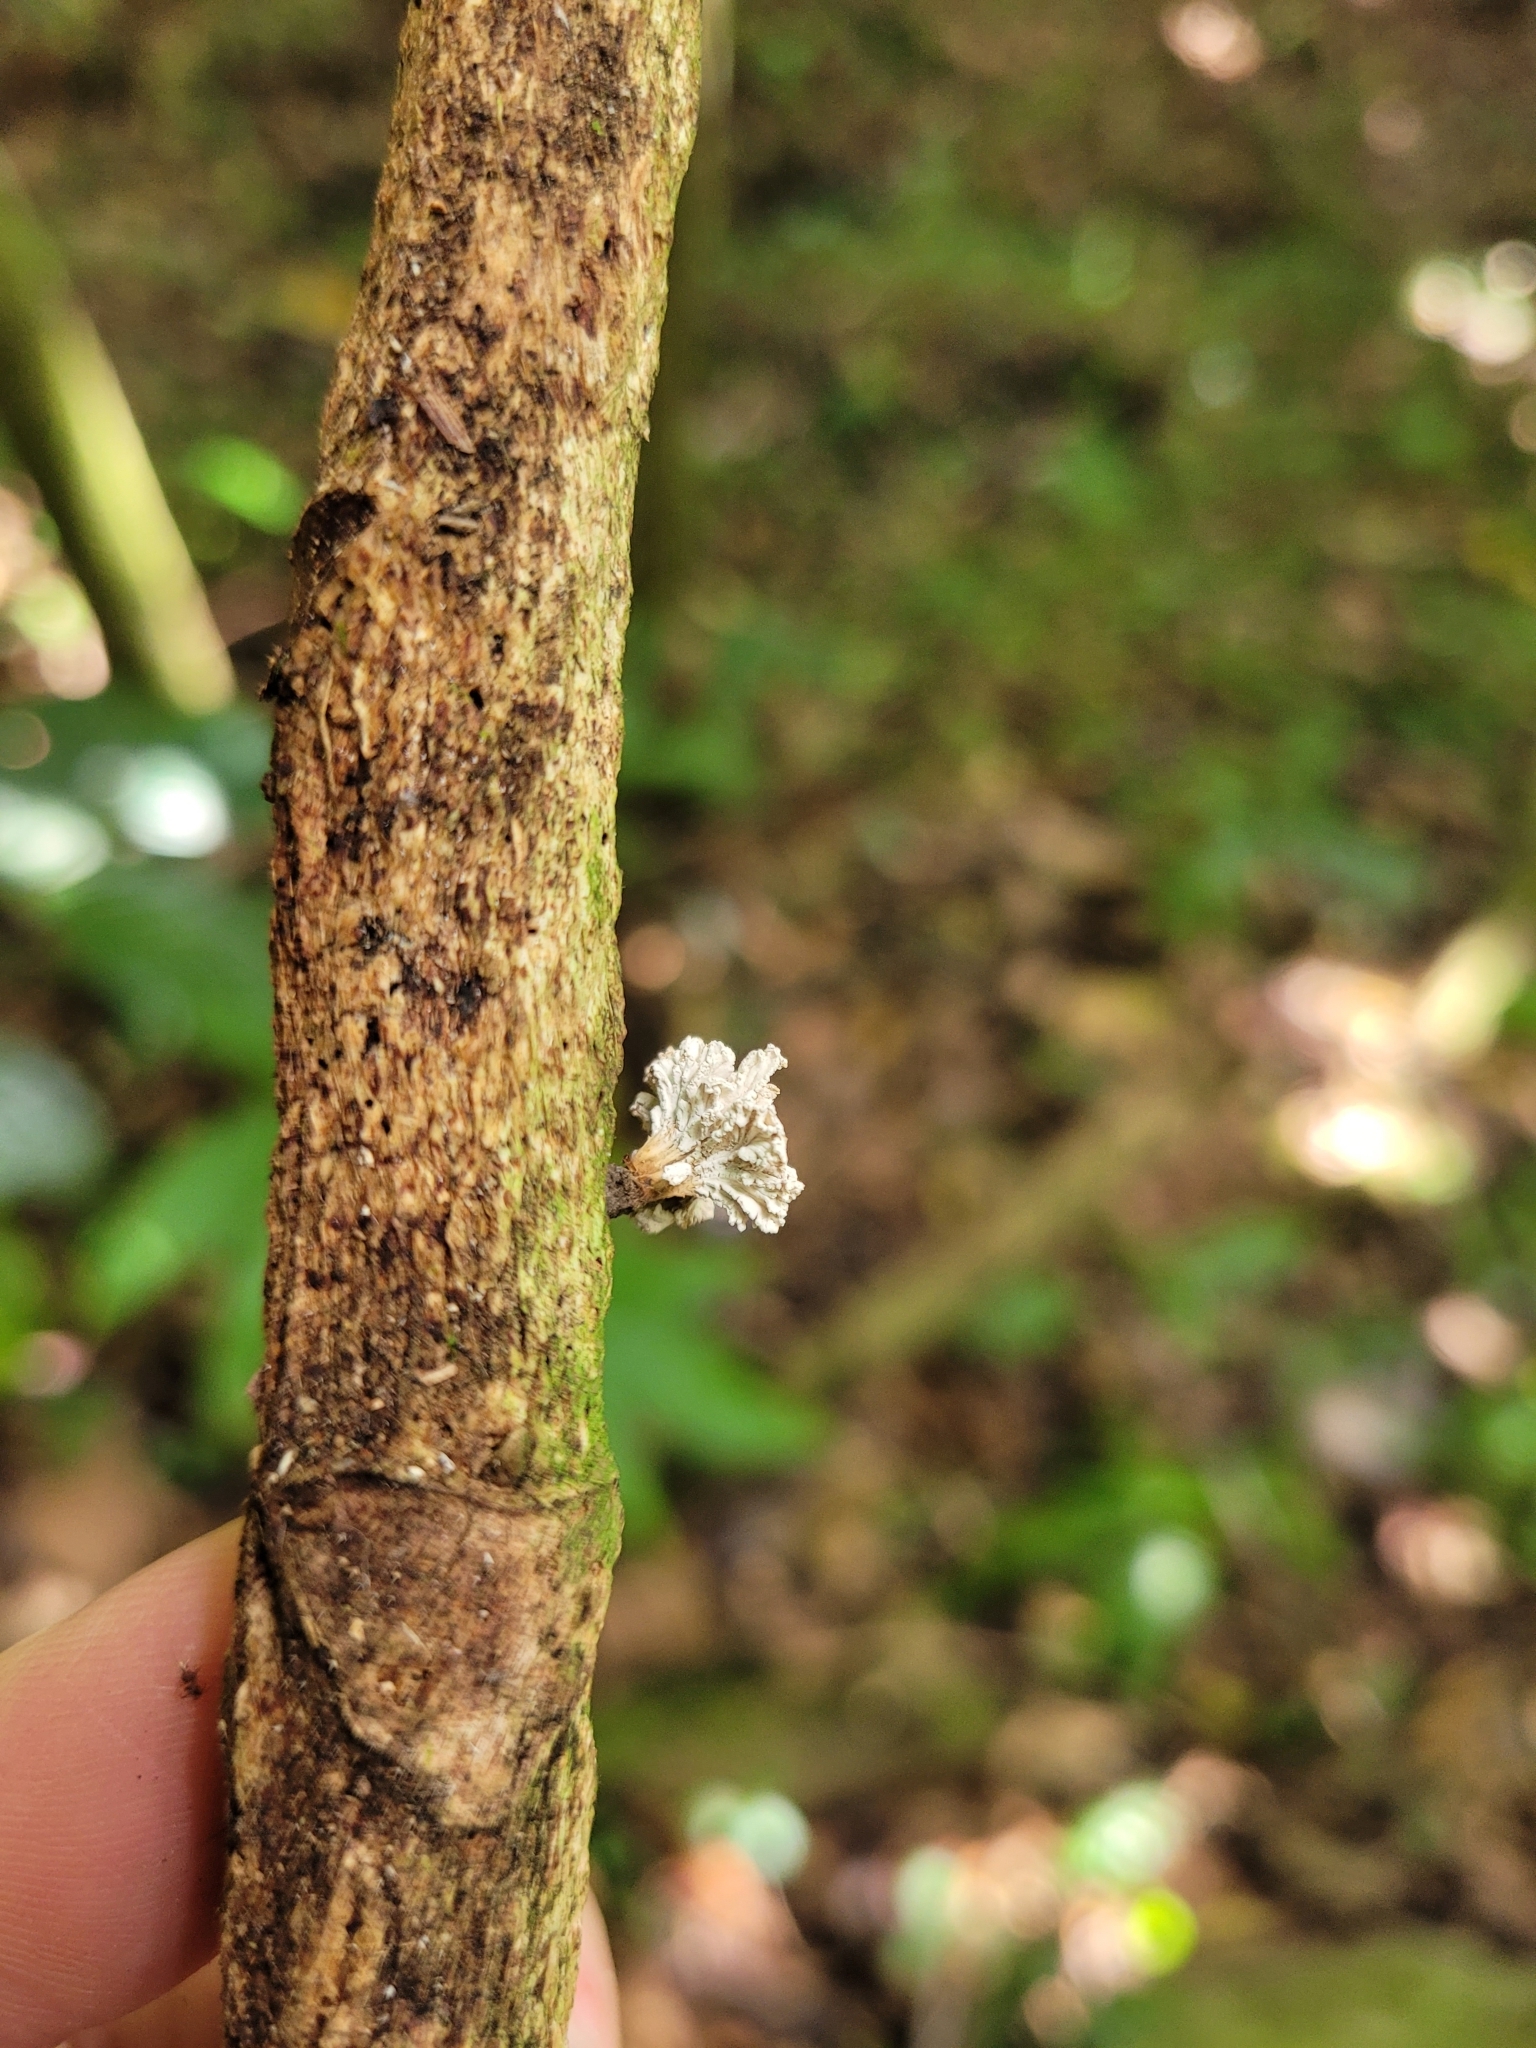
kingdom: Fungi
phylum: Ascomycota
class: Sordariomycetes
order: Xylariales
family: Xylariaceae
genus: Xylaria
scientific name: Xylaria cubensis
